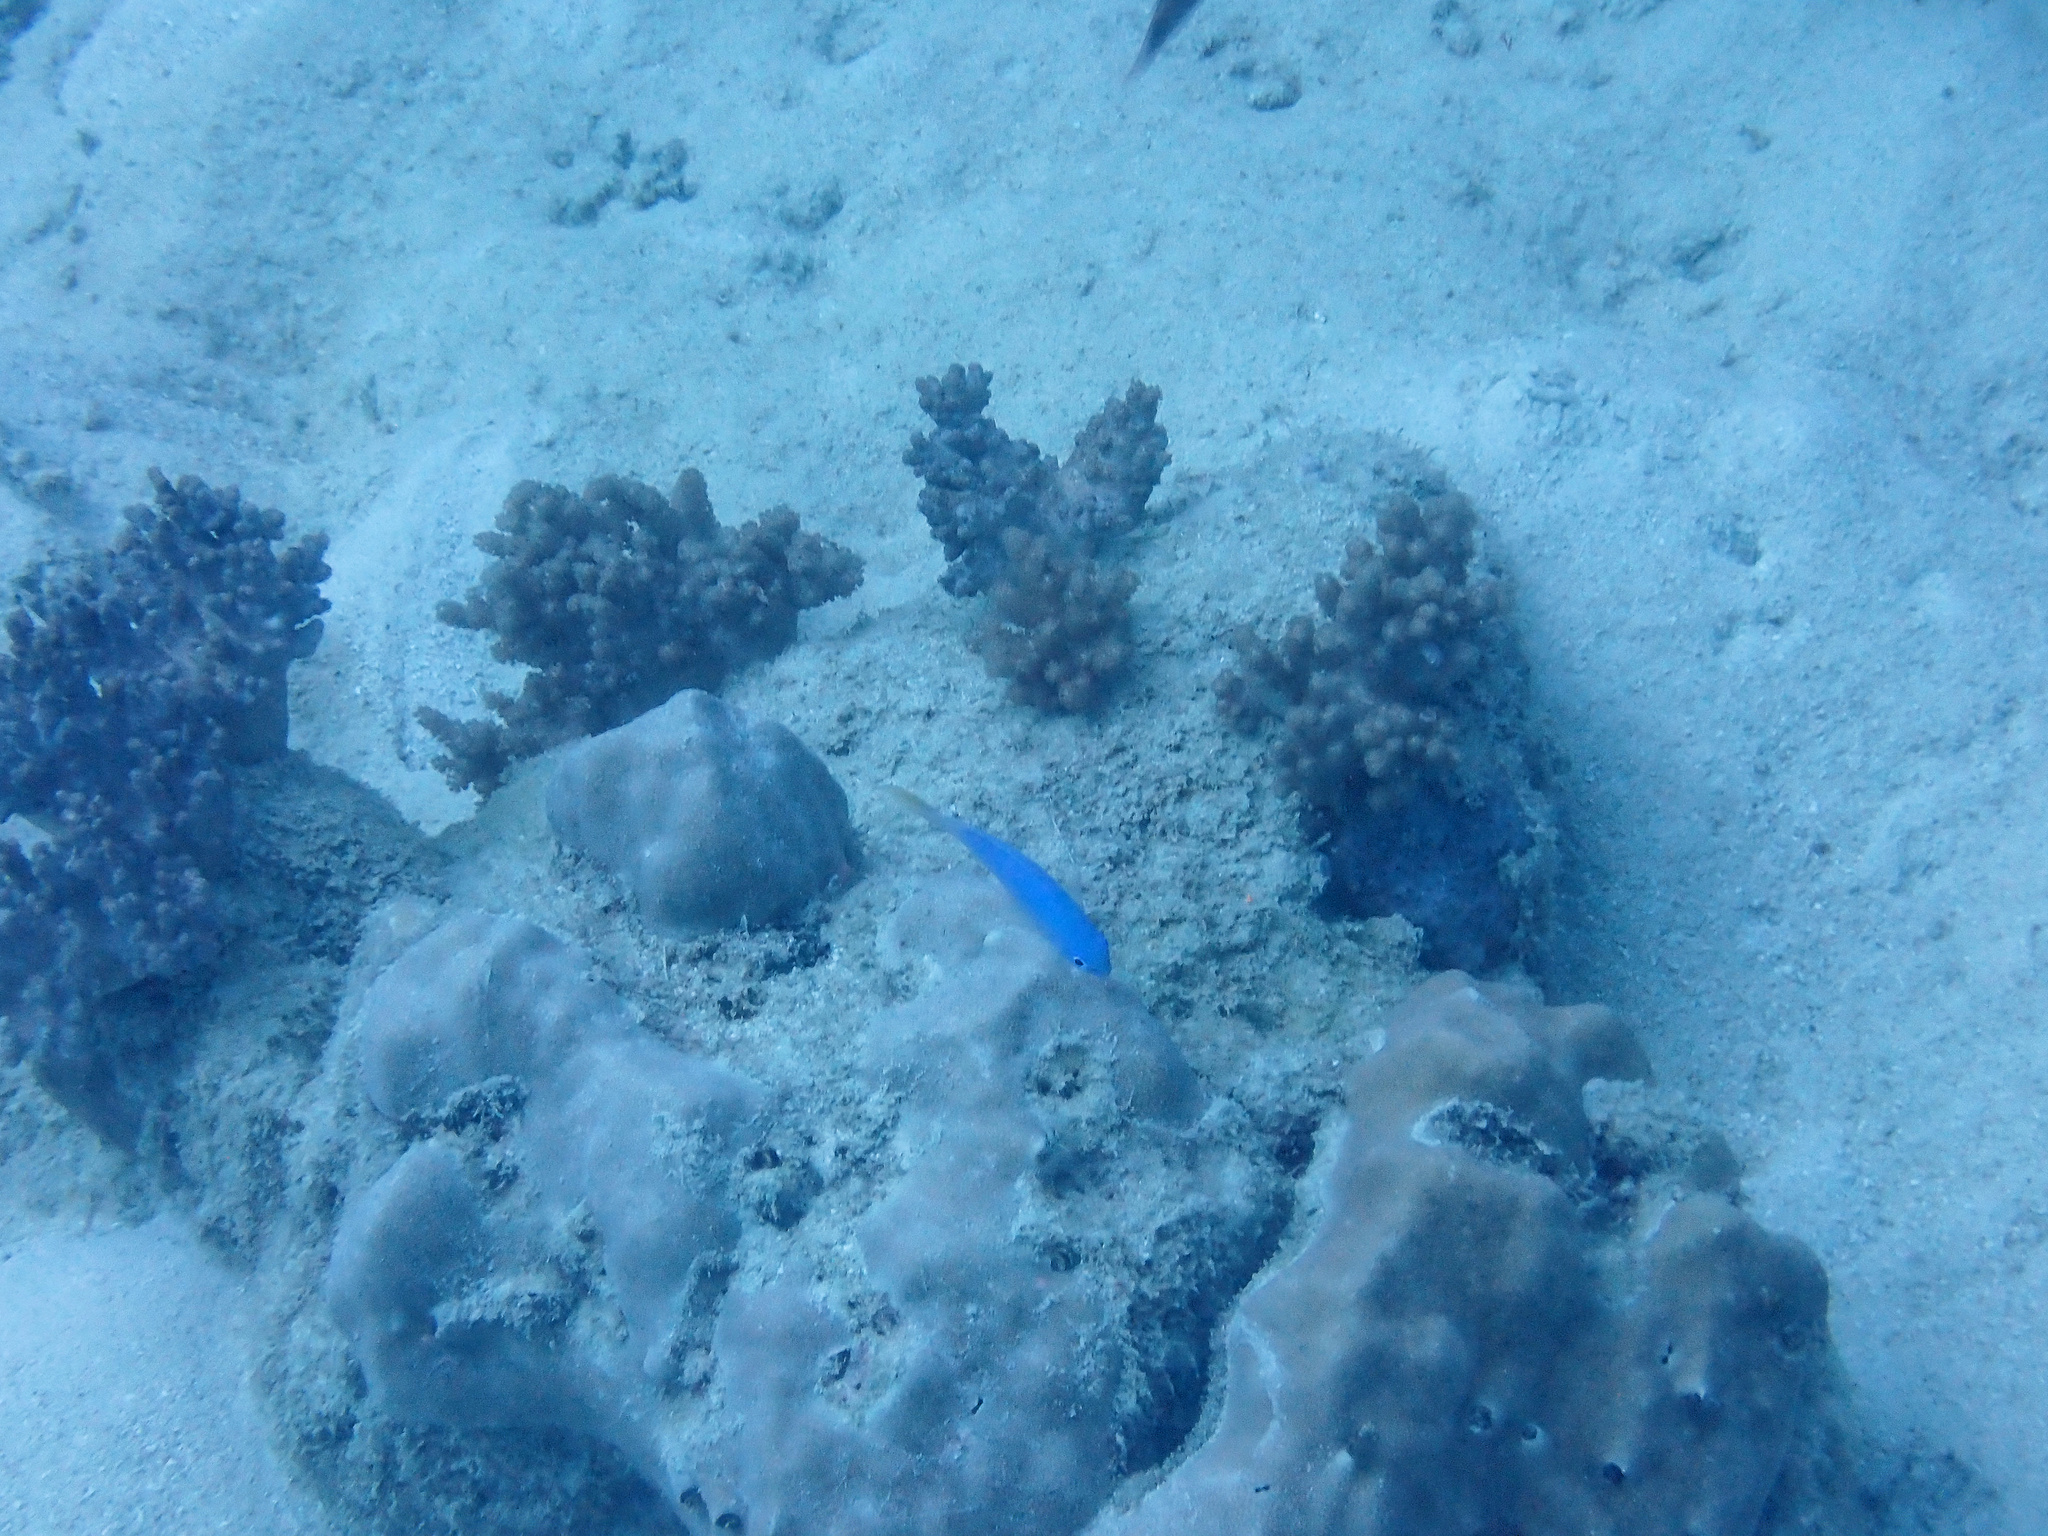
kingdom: Animalia
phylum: Chordata
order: Perciformes
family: Pomacentridae
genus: Pomacentrus
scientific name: Pomacentrus pavo
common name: Sapphire damsel
